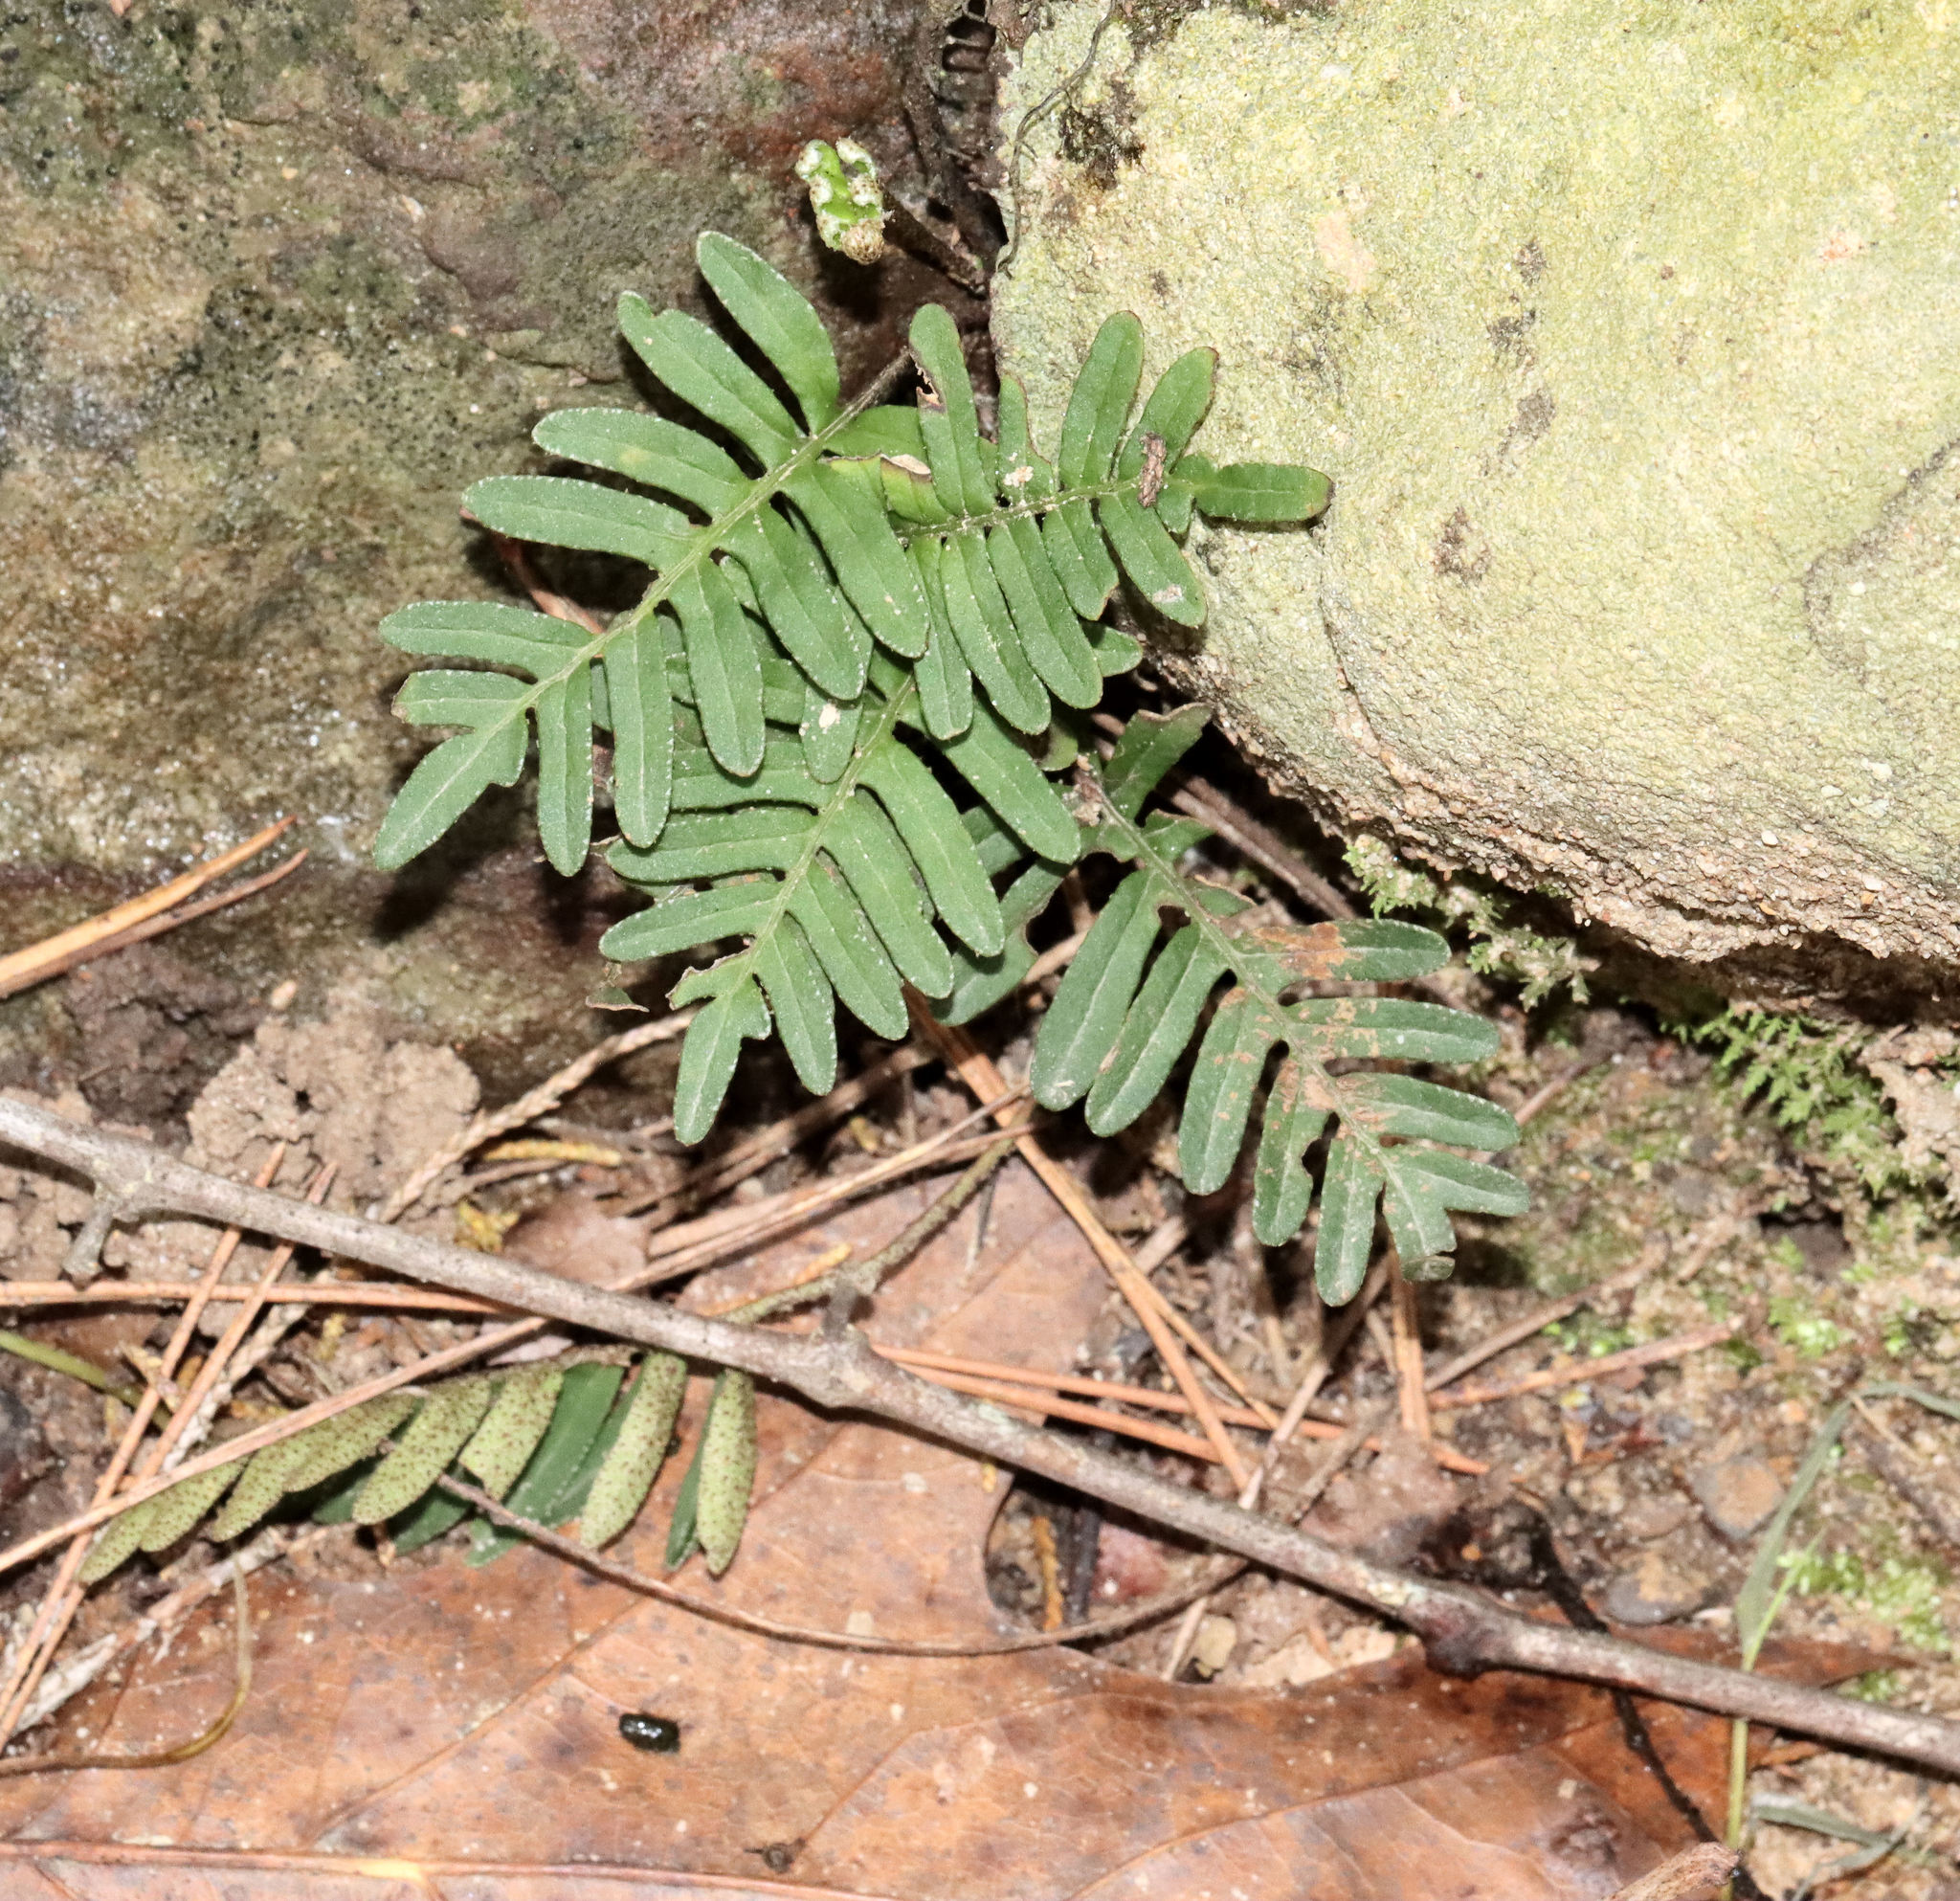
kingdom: Plantae
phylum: Tracheophyta
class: Polypodiopsida
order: Polypodiales
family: Polypodiaceae
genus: Pleopeltis
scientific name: Pleopeltis michauxiana
